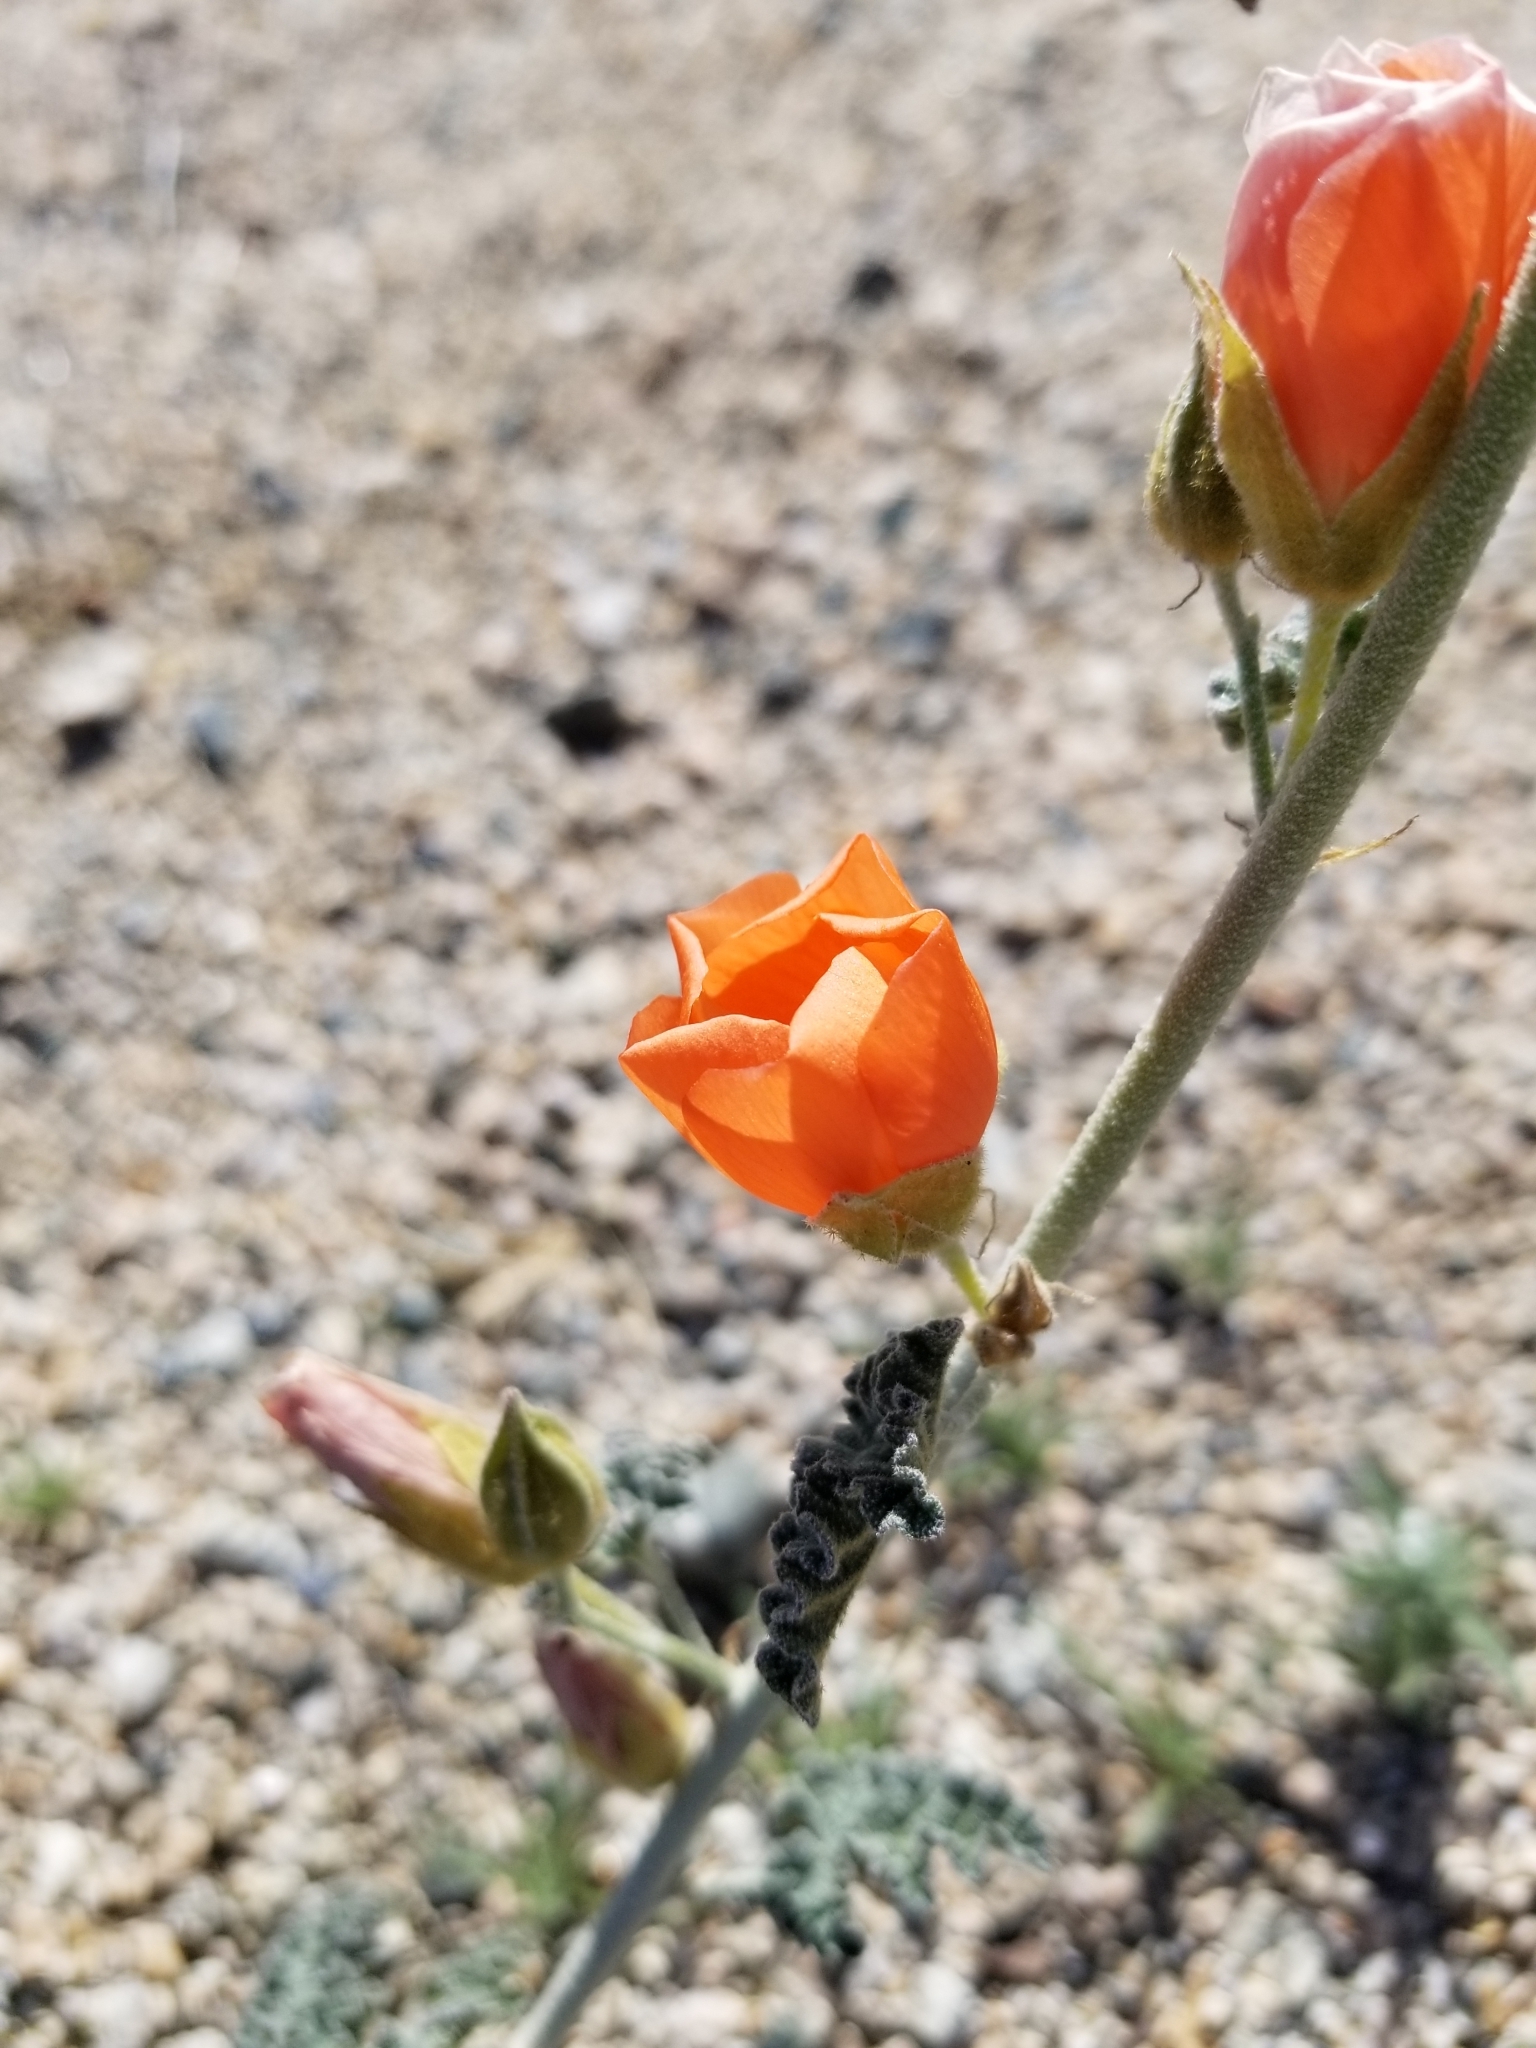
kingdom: Plantae
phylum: Tracheophyta
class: Magnoliopsida
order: Malvales
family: Malvaceae
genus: Sphaeralcea
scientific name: Sphaeralcea ambigua
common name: Apricot globe-mallow
